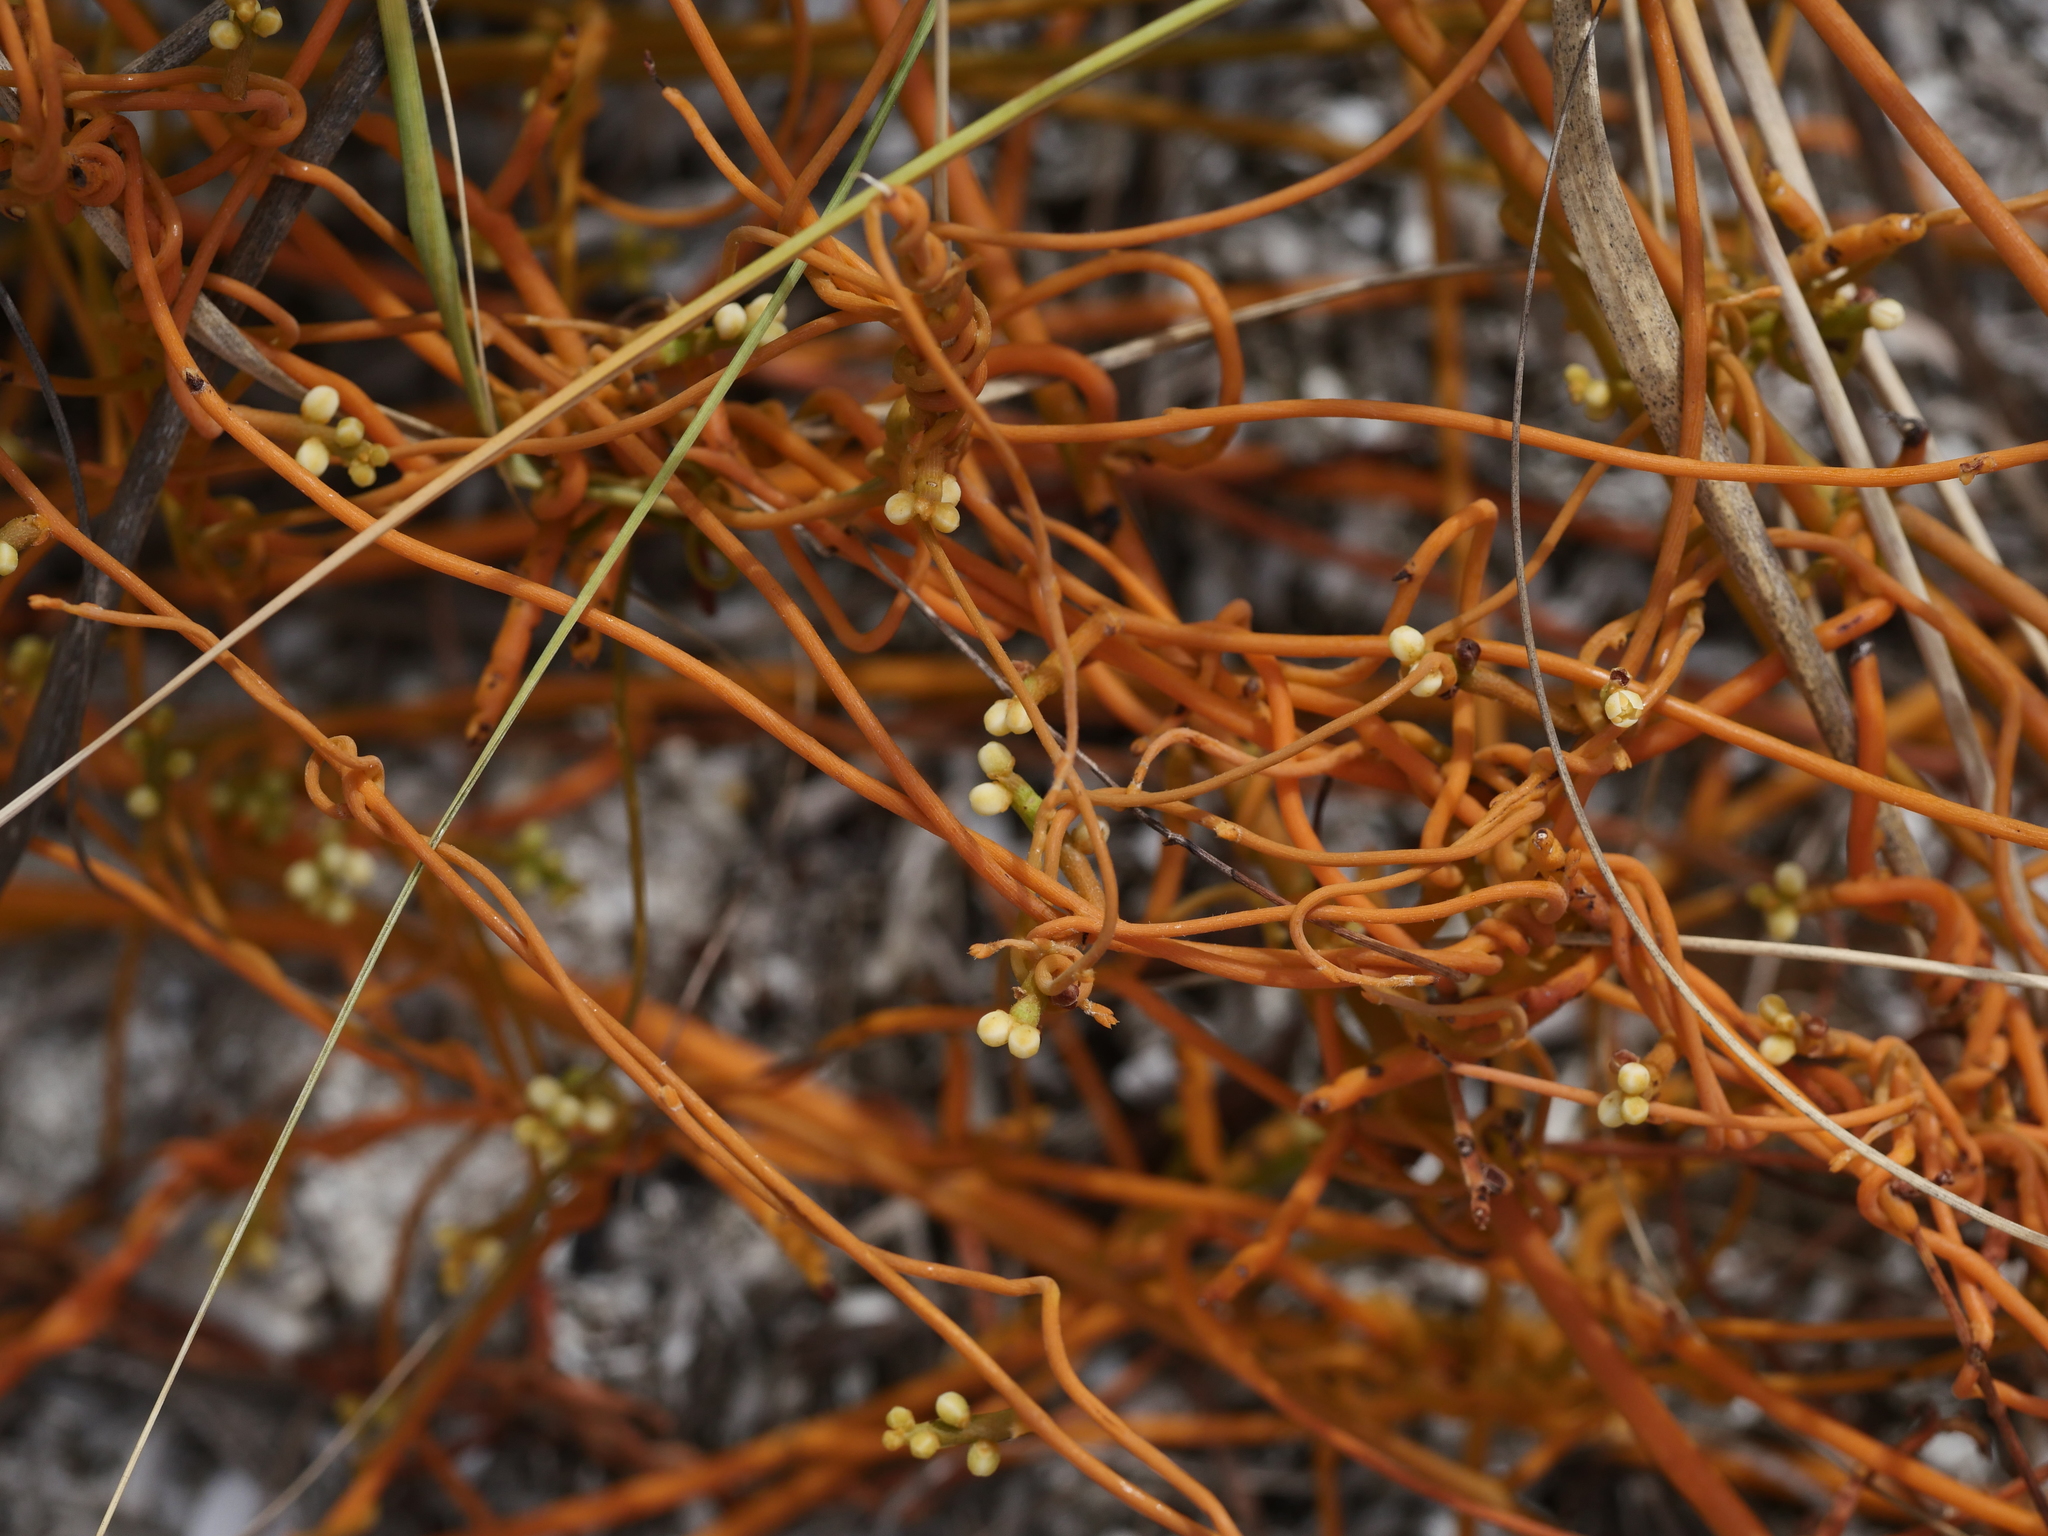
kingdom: Plantae
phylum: Tracheophyta
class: Magnoliopsida
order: Laurales
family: Lauraceae
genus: Cassytha
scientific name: Cassytha filiformis
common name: Dodder-laurel
